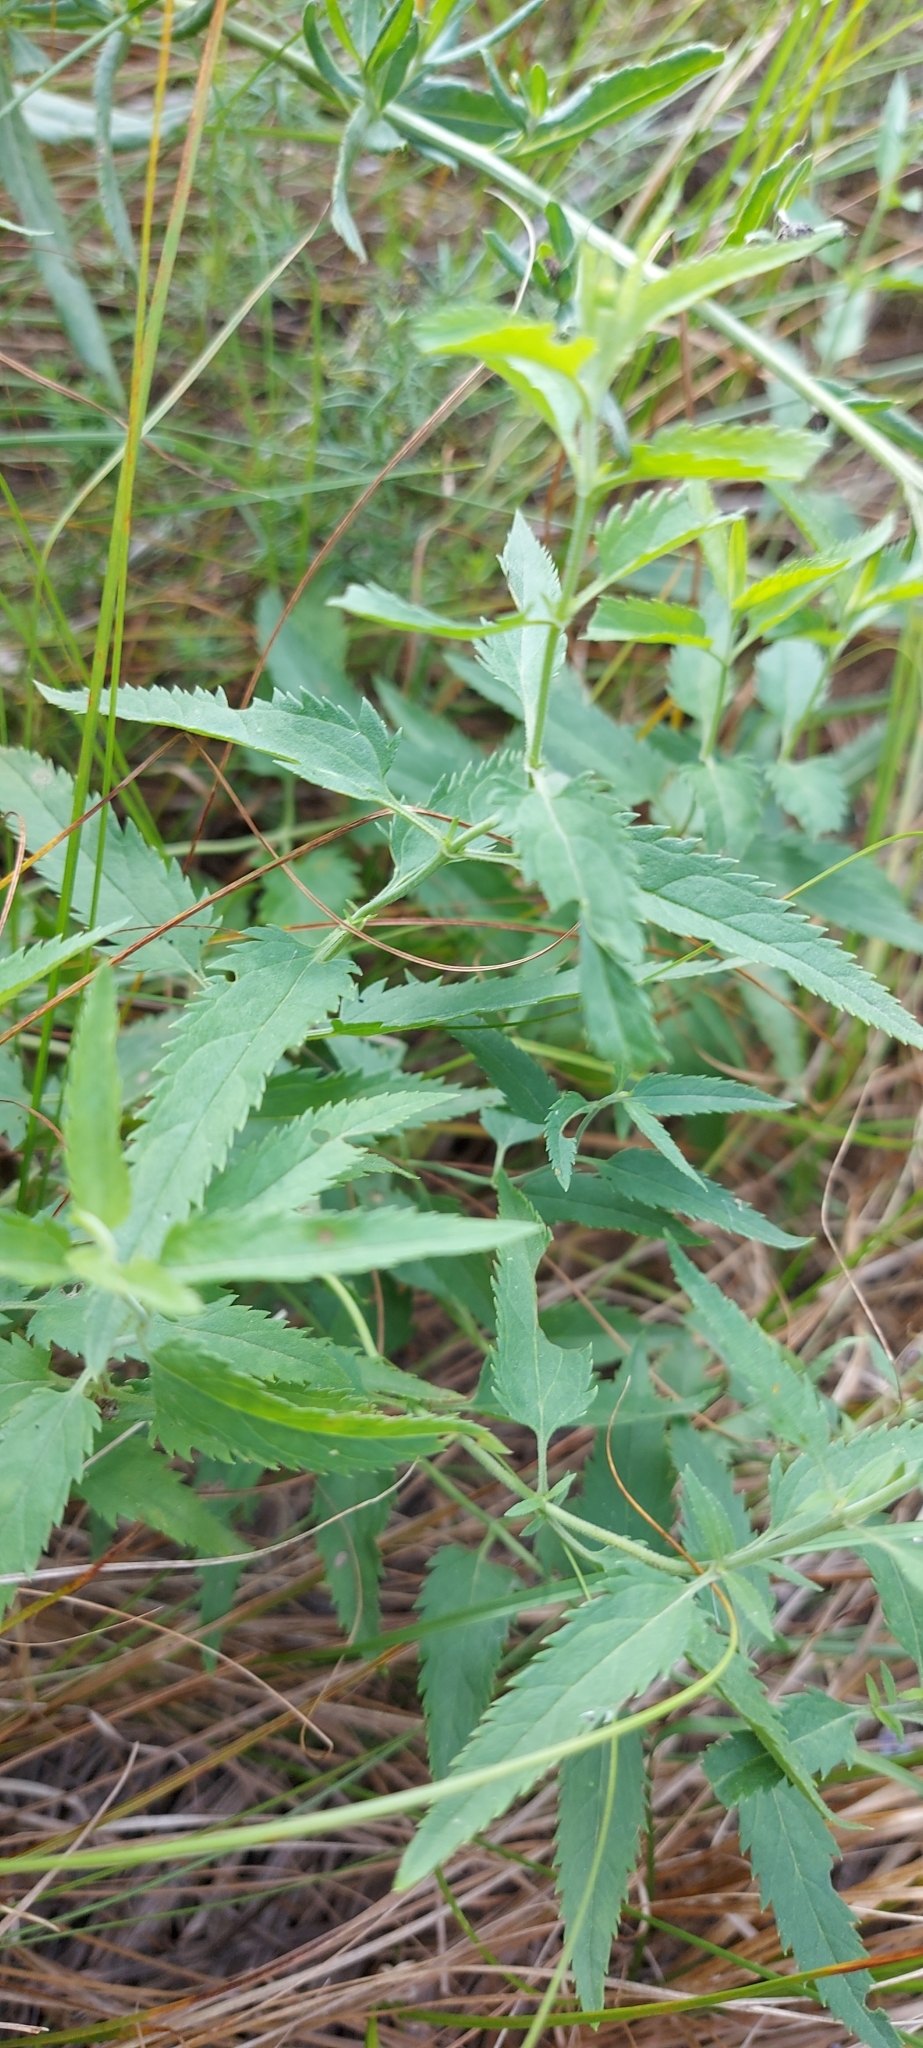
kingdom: Plantae
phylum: Tracheophyta
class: Magnoliopsida
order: Lamiales
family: Plantaginaceae
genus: Veronica
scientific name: Veronica longifolia
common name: Garden speedwell
